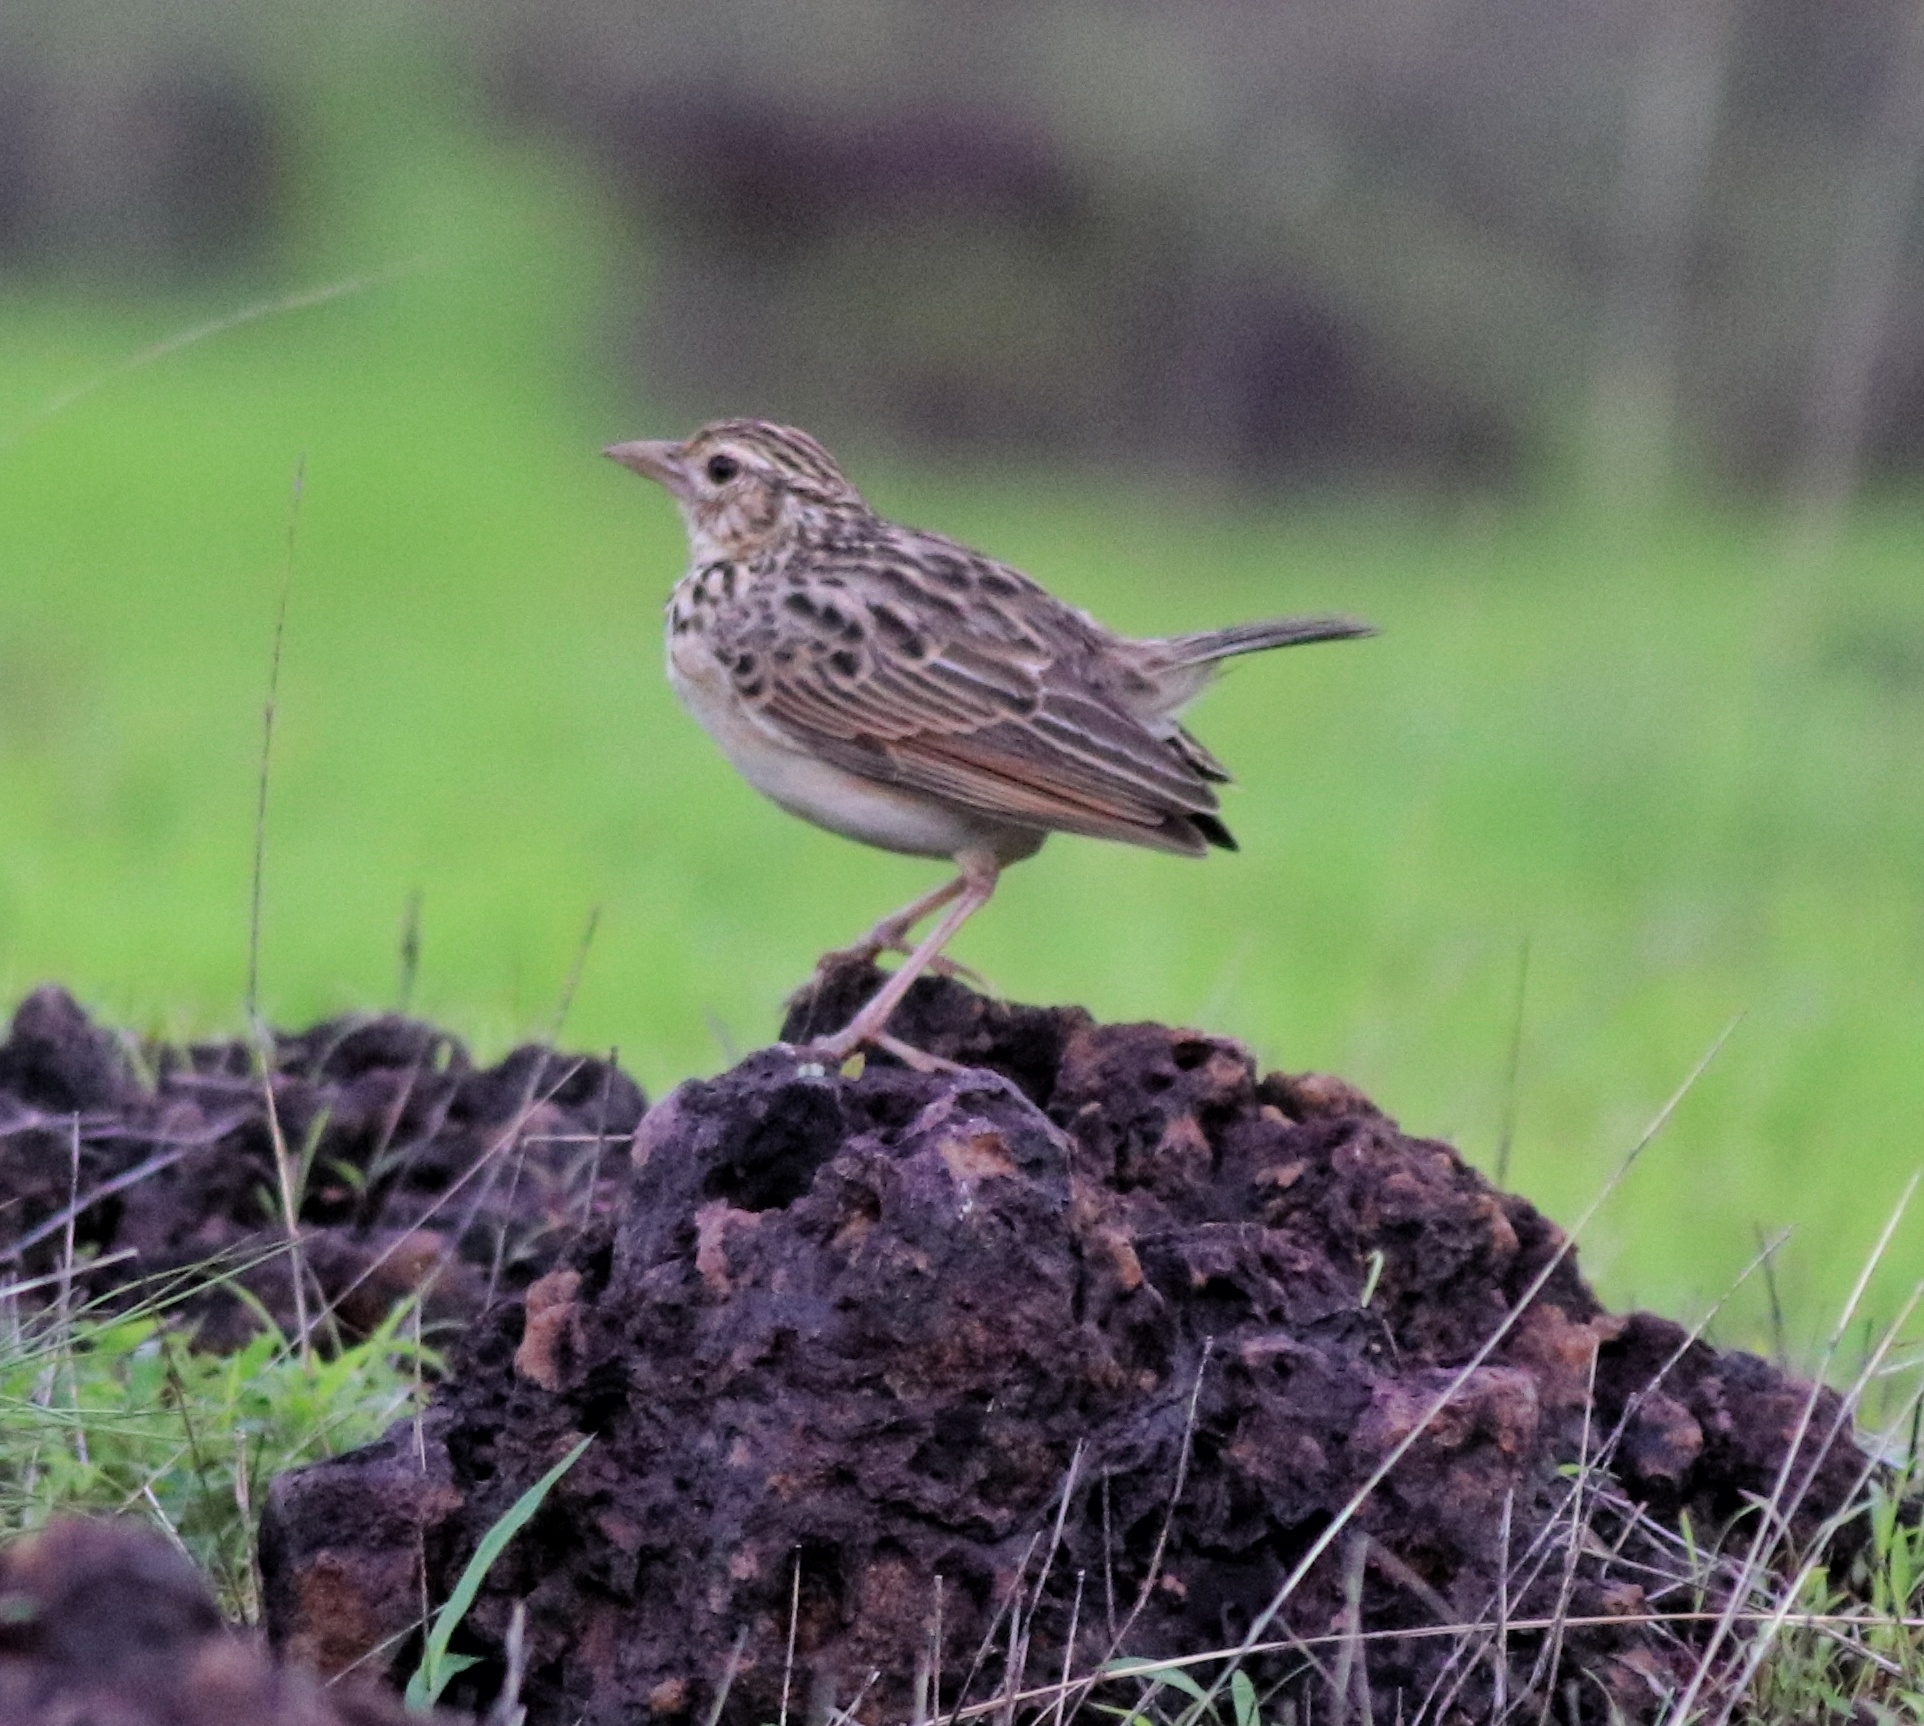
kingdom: Animalia
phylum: Chordata
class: Aves
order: Passeriformes
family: Alaudidae
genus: Mirafra
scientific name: Mirafra affinis
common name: Jerdon's bushlark
